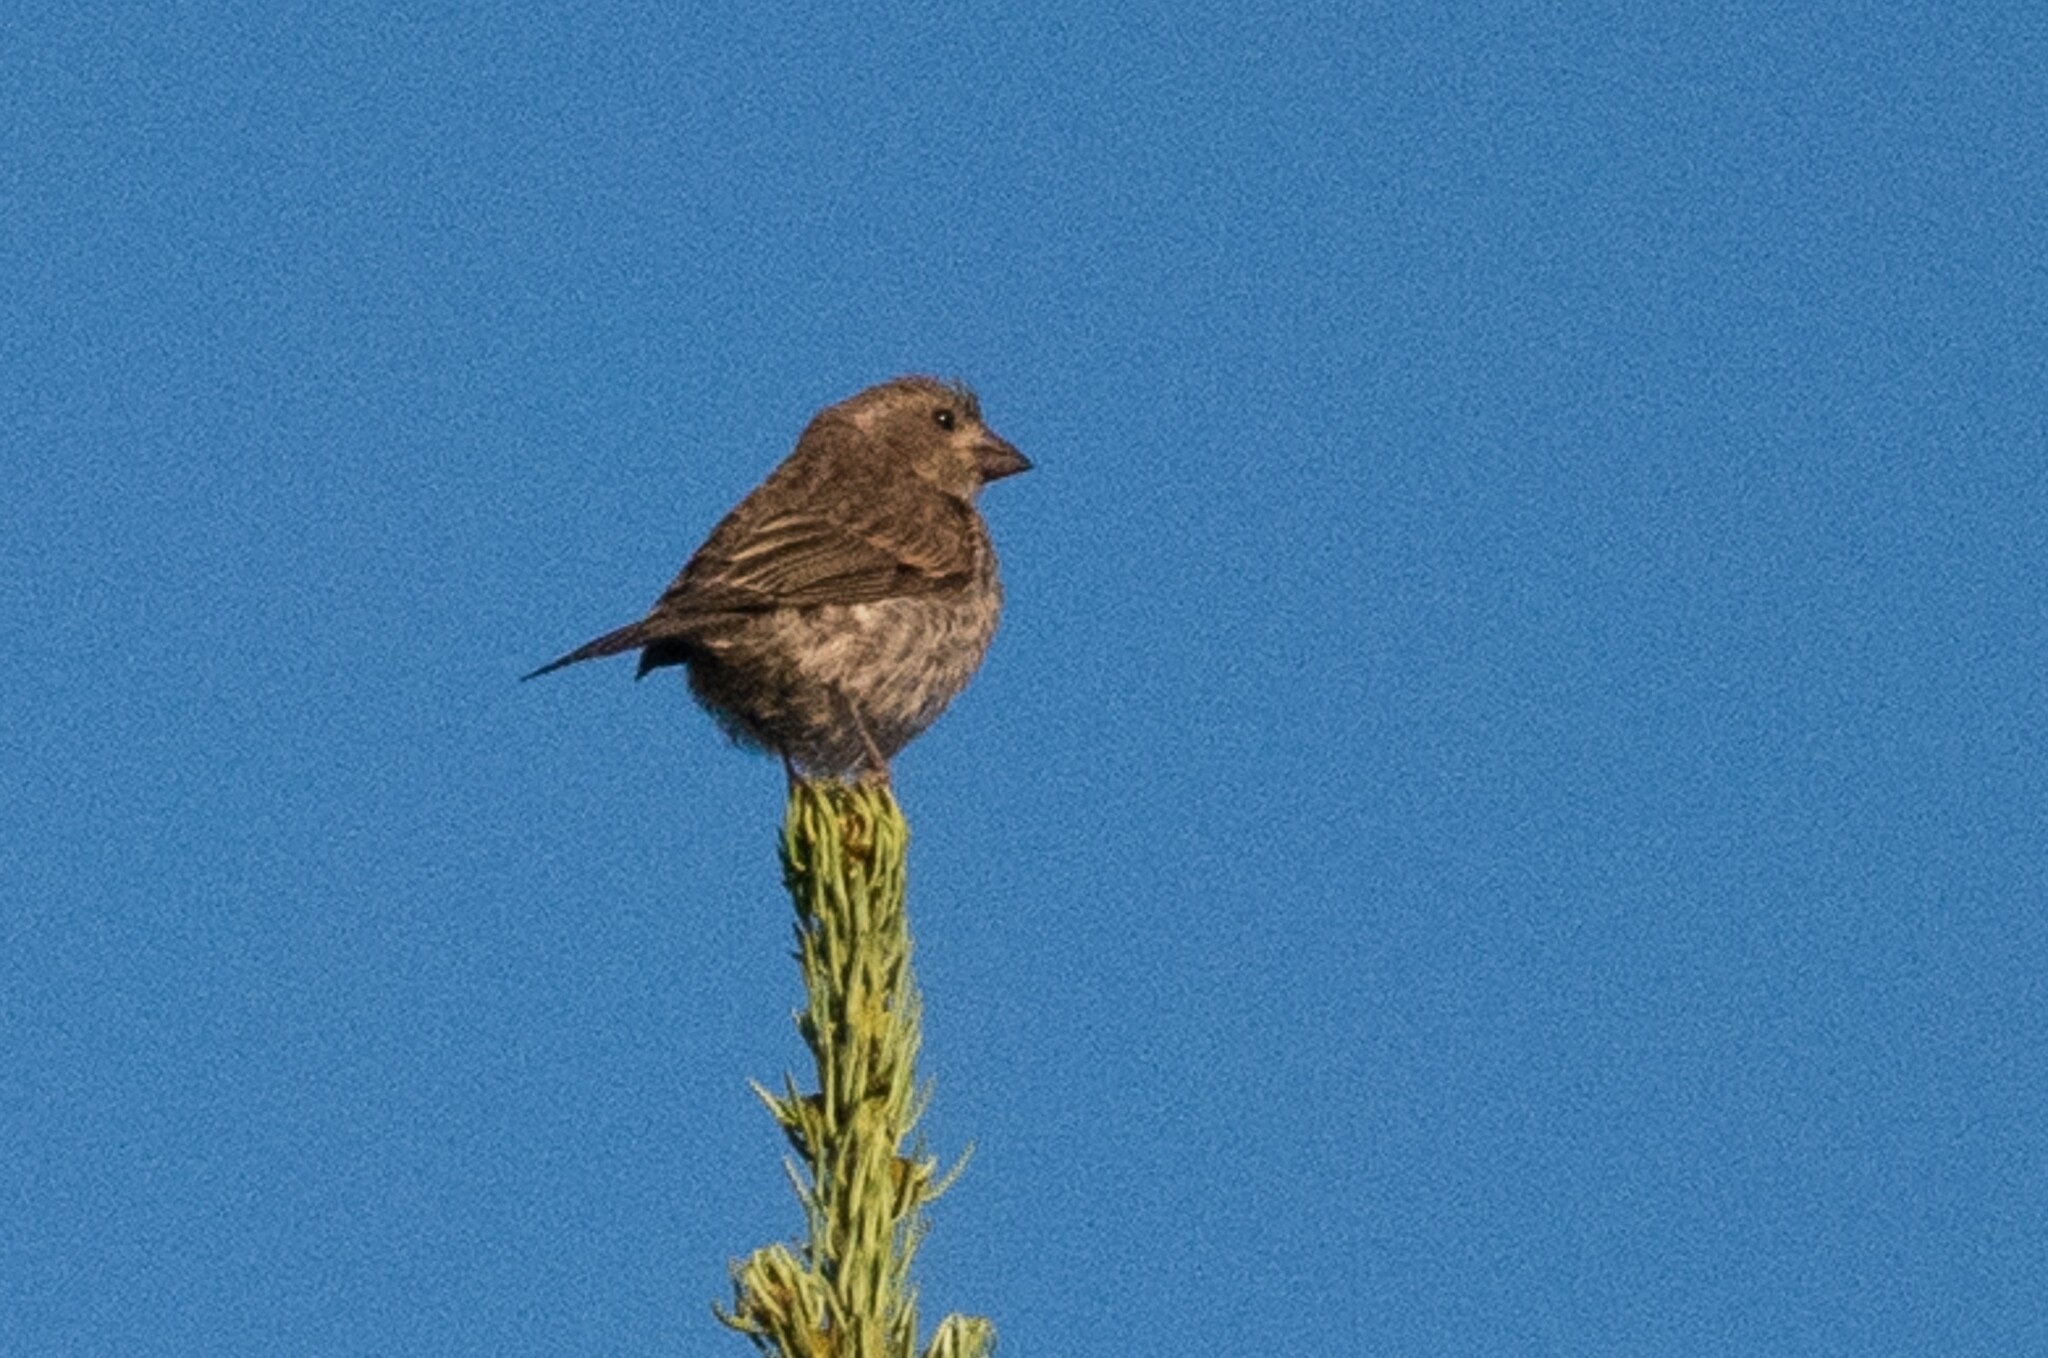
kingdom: Animalia
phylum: Chordata
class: Aves
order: Passeriformes
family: Fringillidae
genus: Haemorhous
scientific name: Haemorhous cassinii
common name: Cassin's finch
